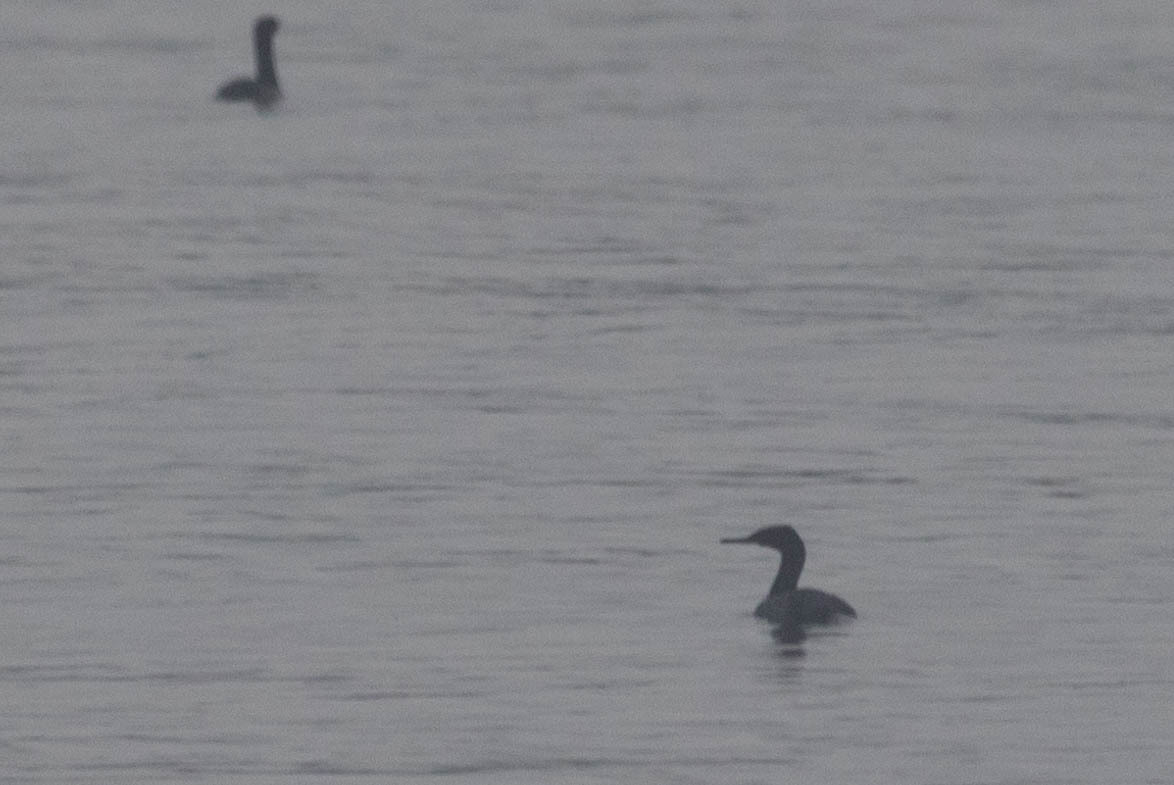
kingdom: Animalia
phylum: Chordata
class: Aves
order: Suliformes
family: Phalacrocoracidae
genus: Phalacrocorax
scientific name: Phalacrocorax pelagicus
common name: Pelagic cormorant
